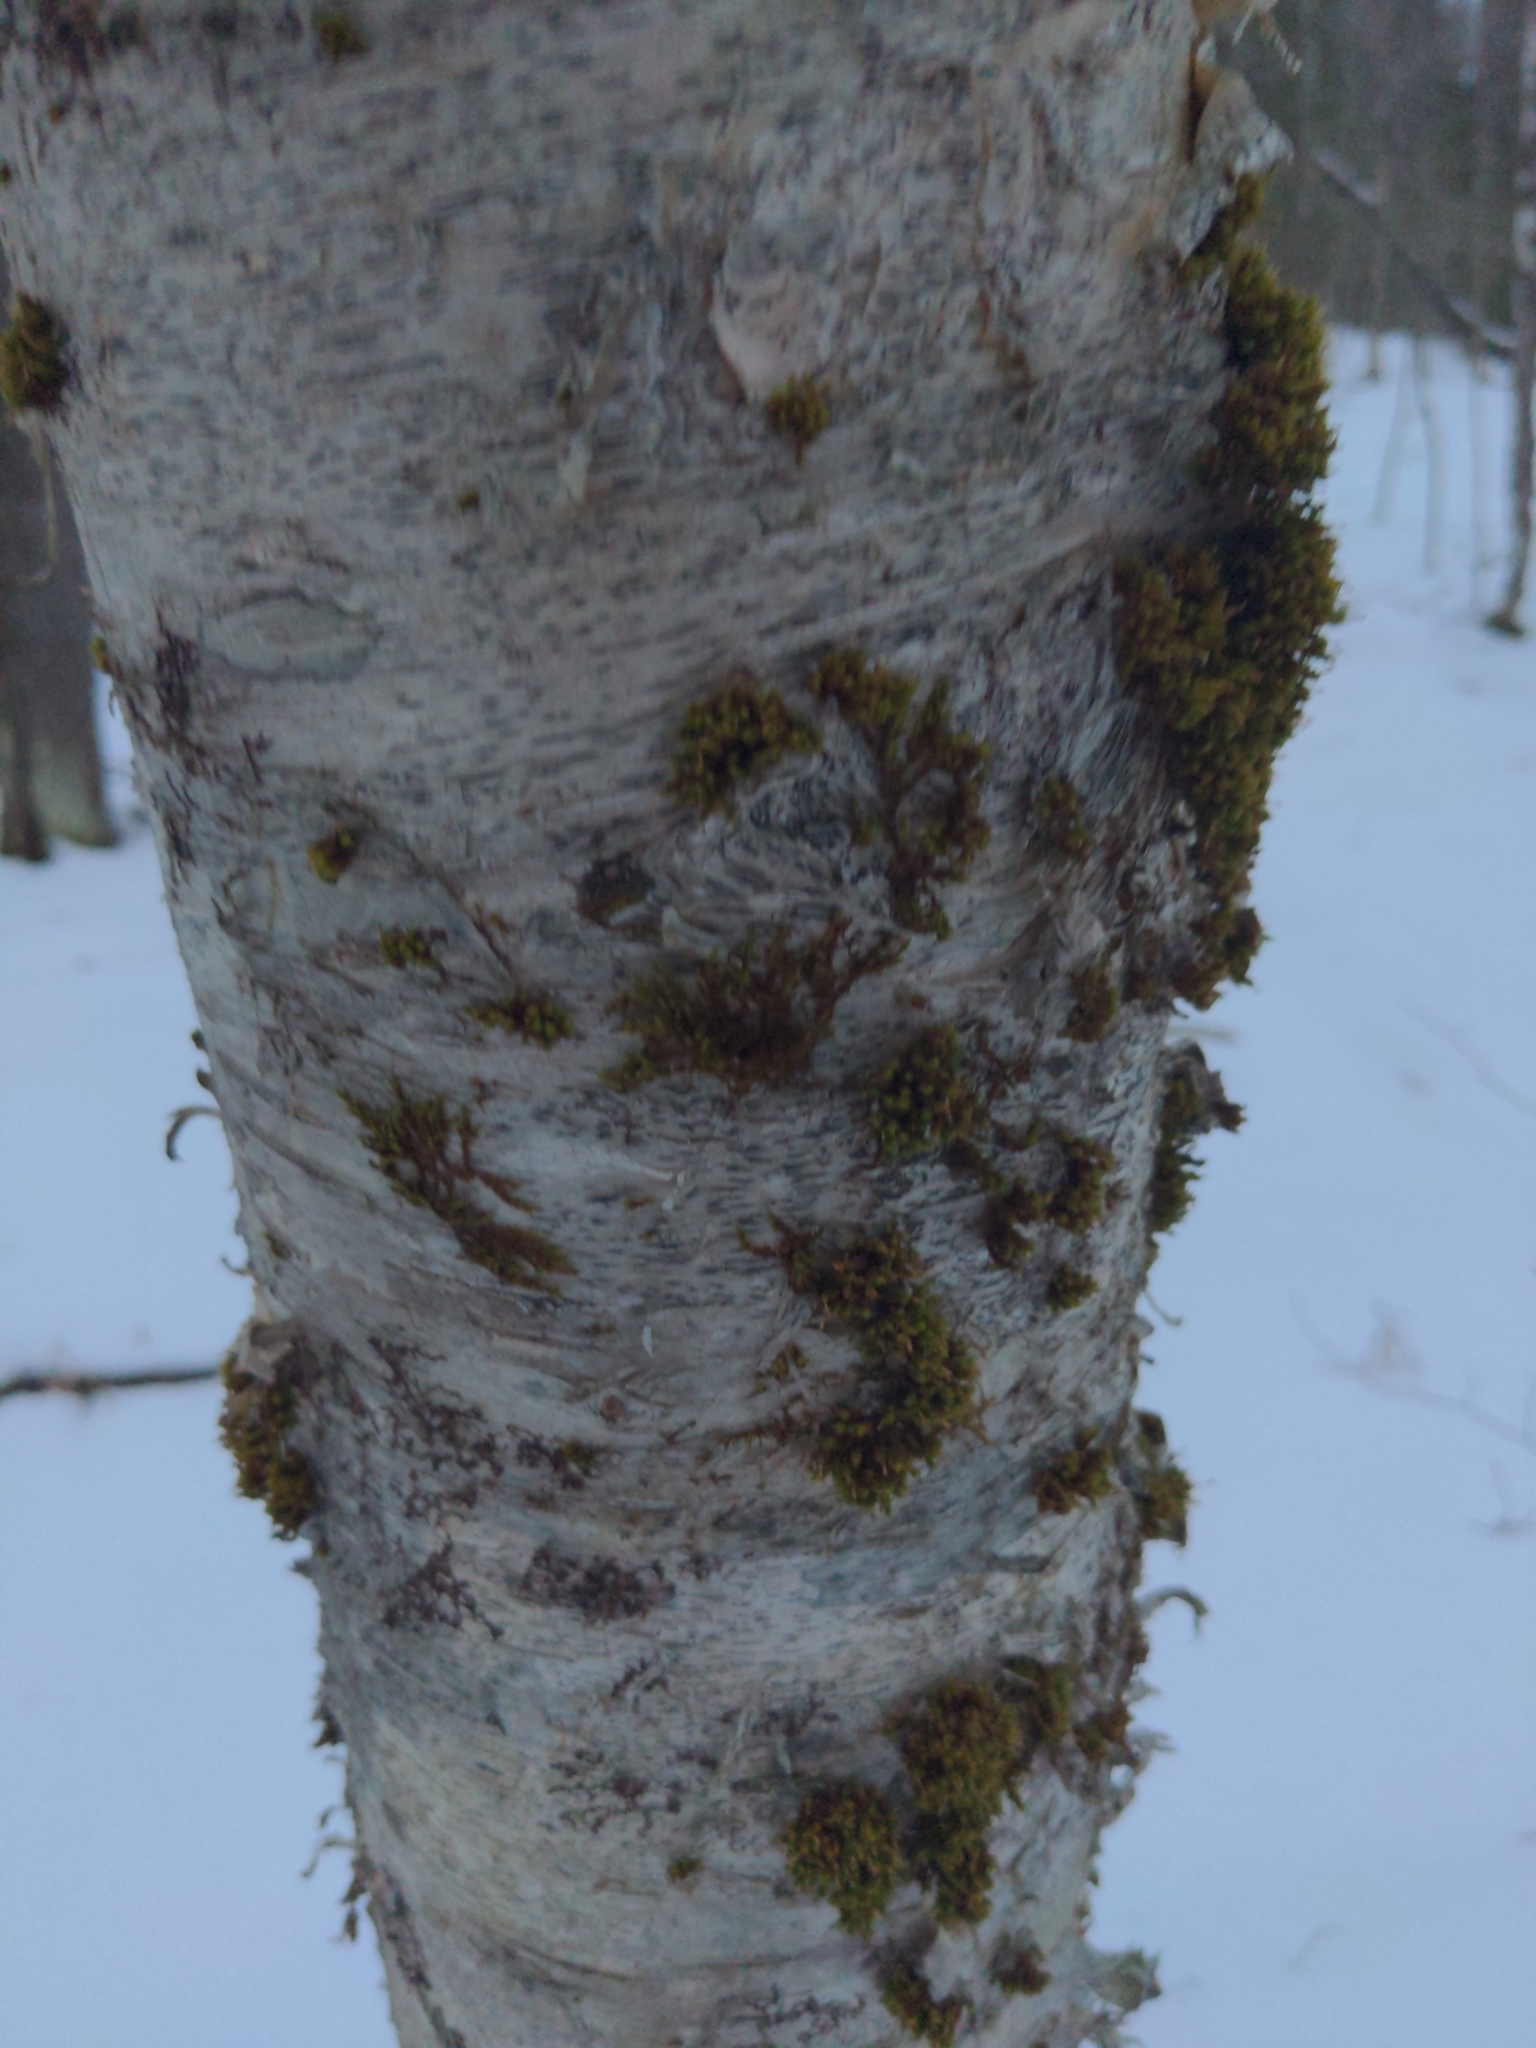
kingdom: Plantae
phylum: Bryophyta
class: Bryopsida
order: Orthotrichales
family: Orthotrichaceae
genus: Ulota
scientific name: Ulota crispa
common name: Crisped pincushion moss
